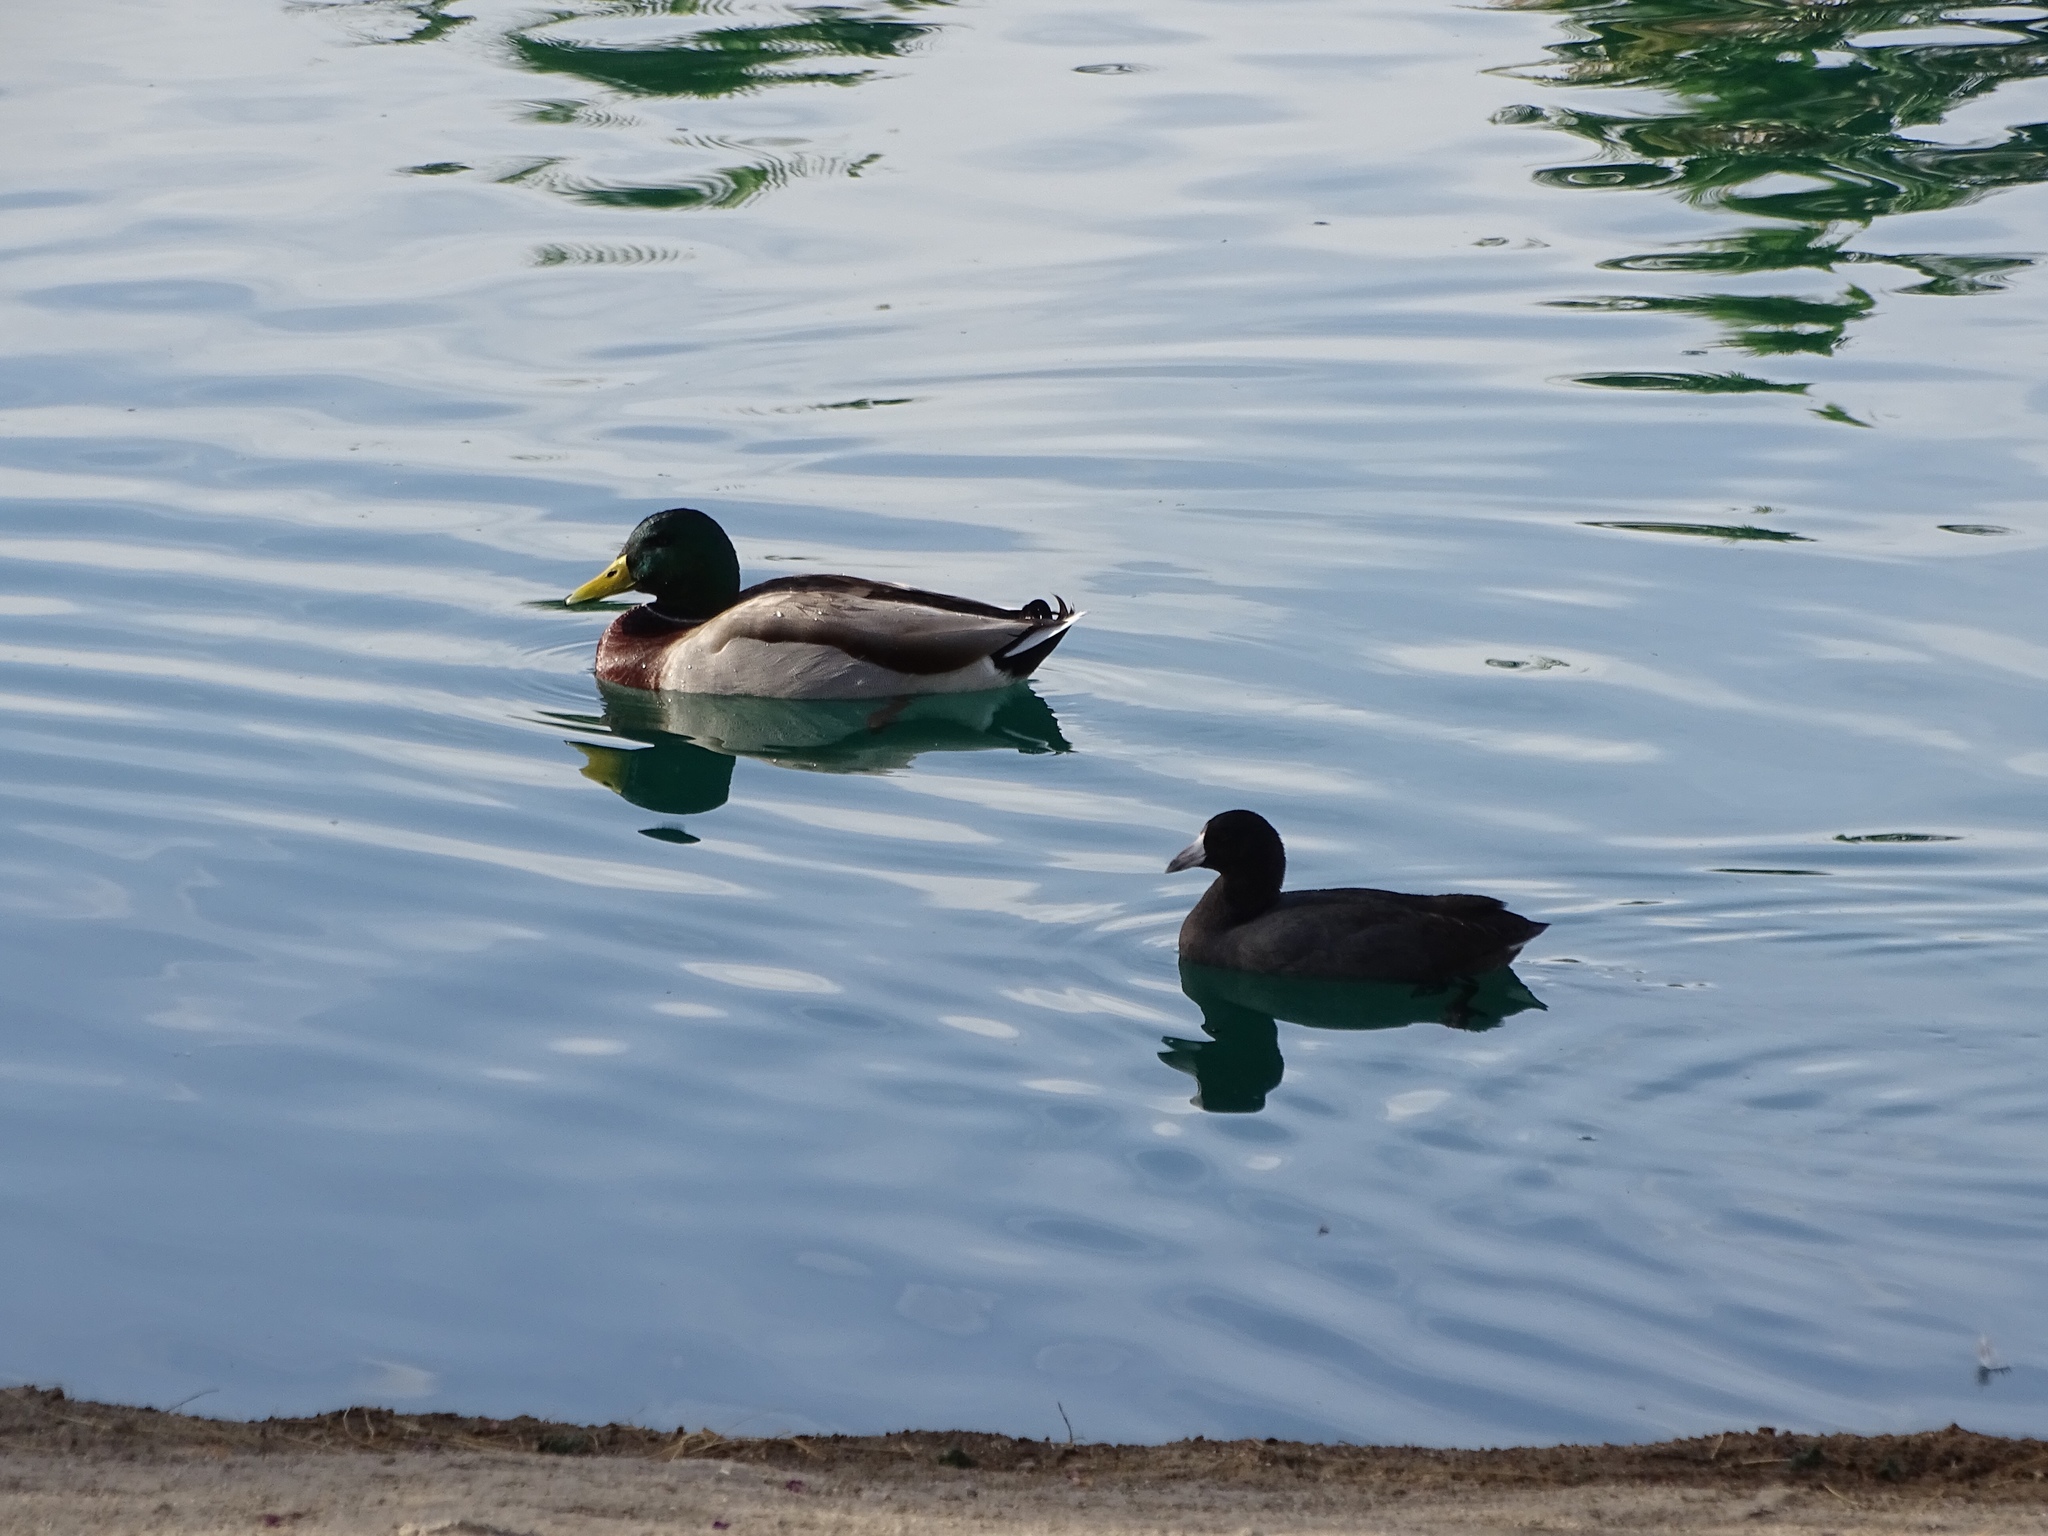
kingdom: Animalia
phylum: Chordata
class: Aves
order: Gruiformes
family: Rallidae
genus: Fulica
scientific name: Fulica americana
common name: American coot
